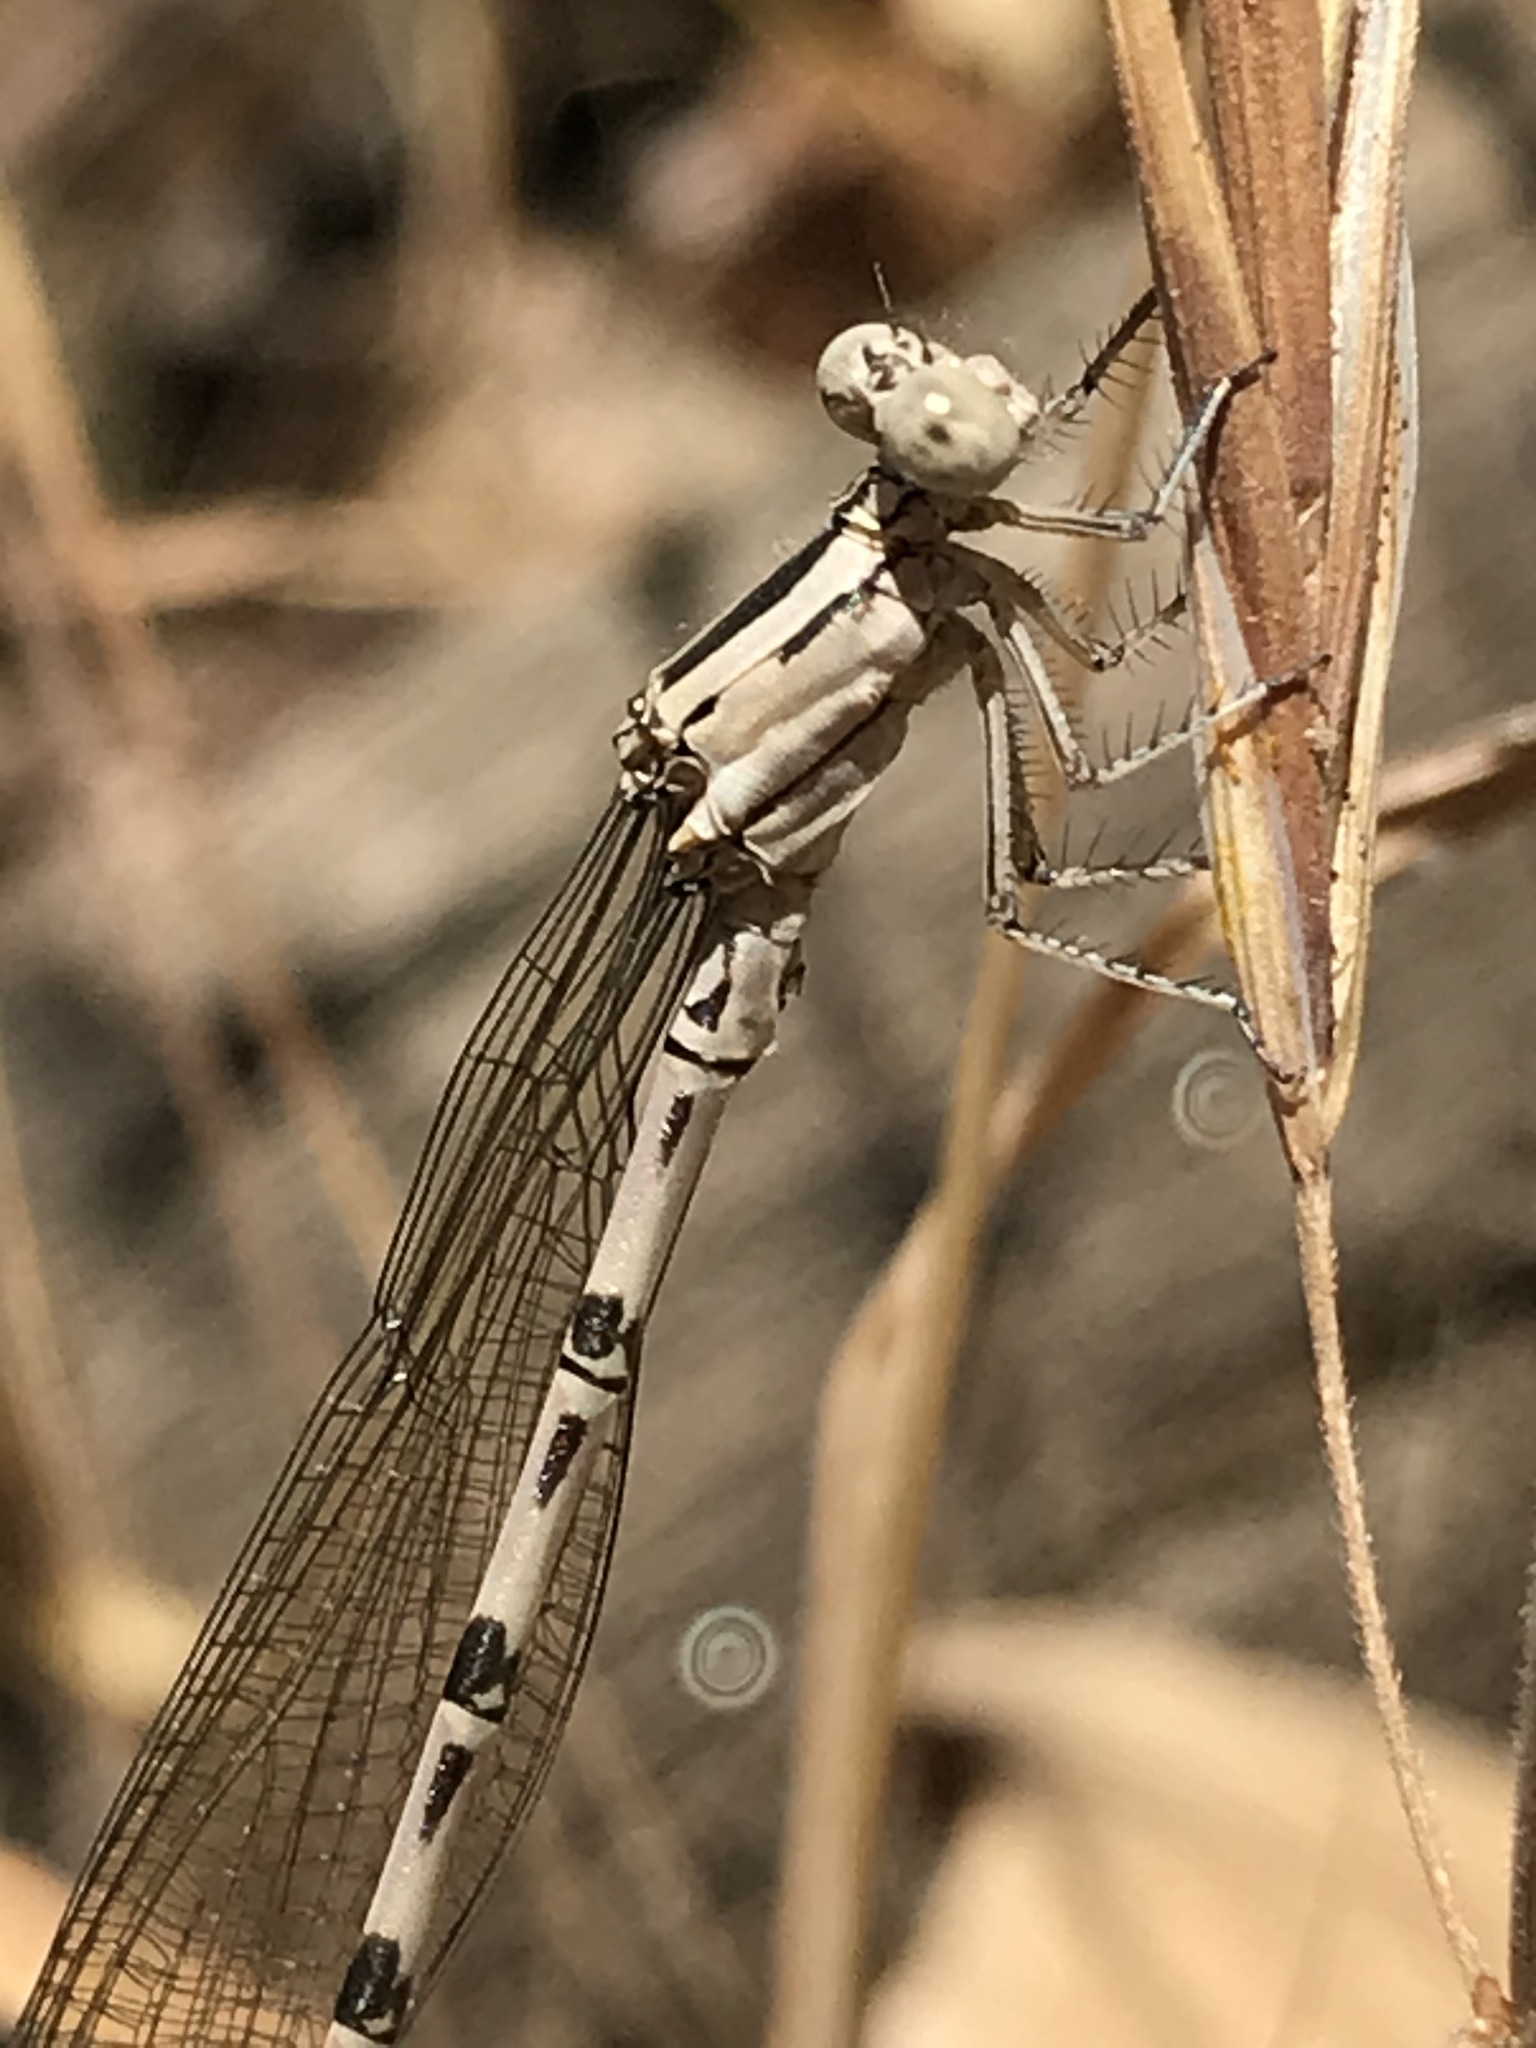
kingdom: Animalia
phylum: Arthropoda
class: Insecta
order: Odonata
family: Coenagrionidae
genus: Argia
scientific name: Argia vivida
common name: Vivid dancer
